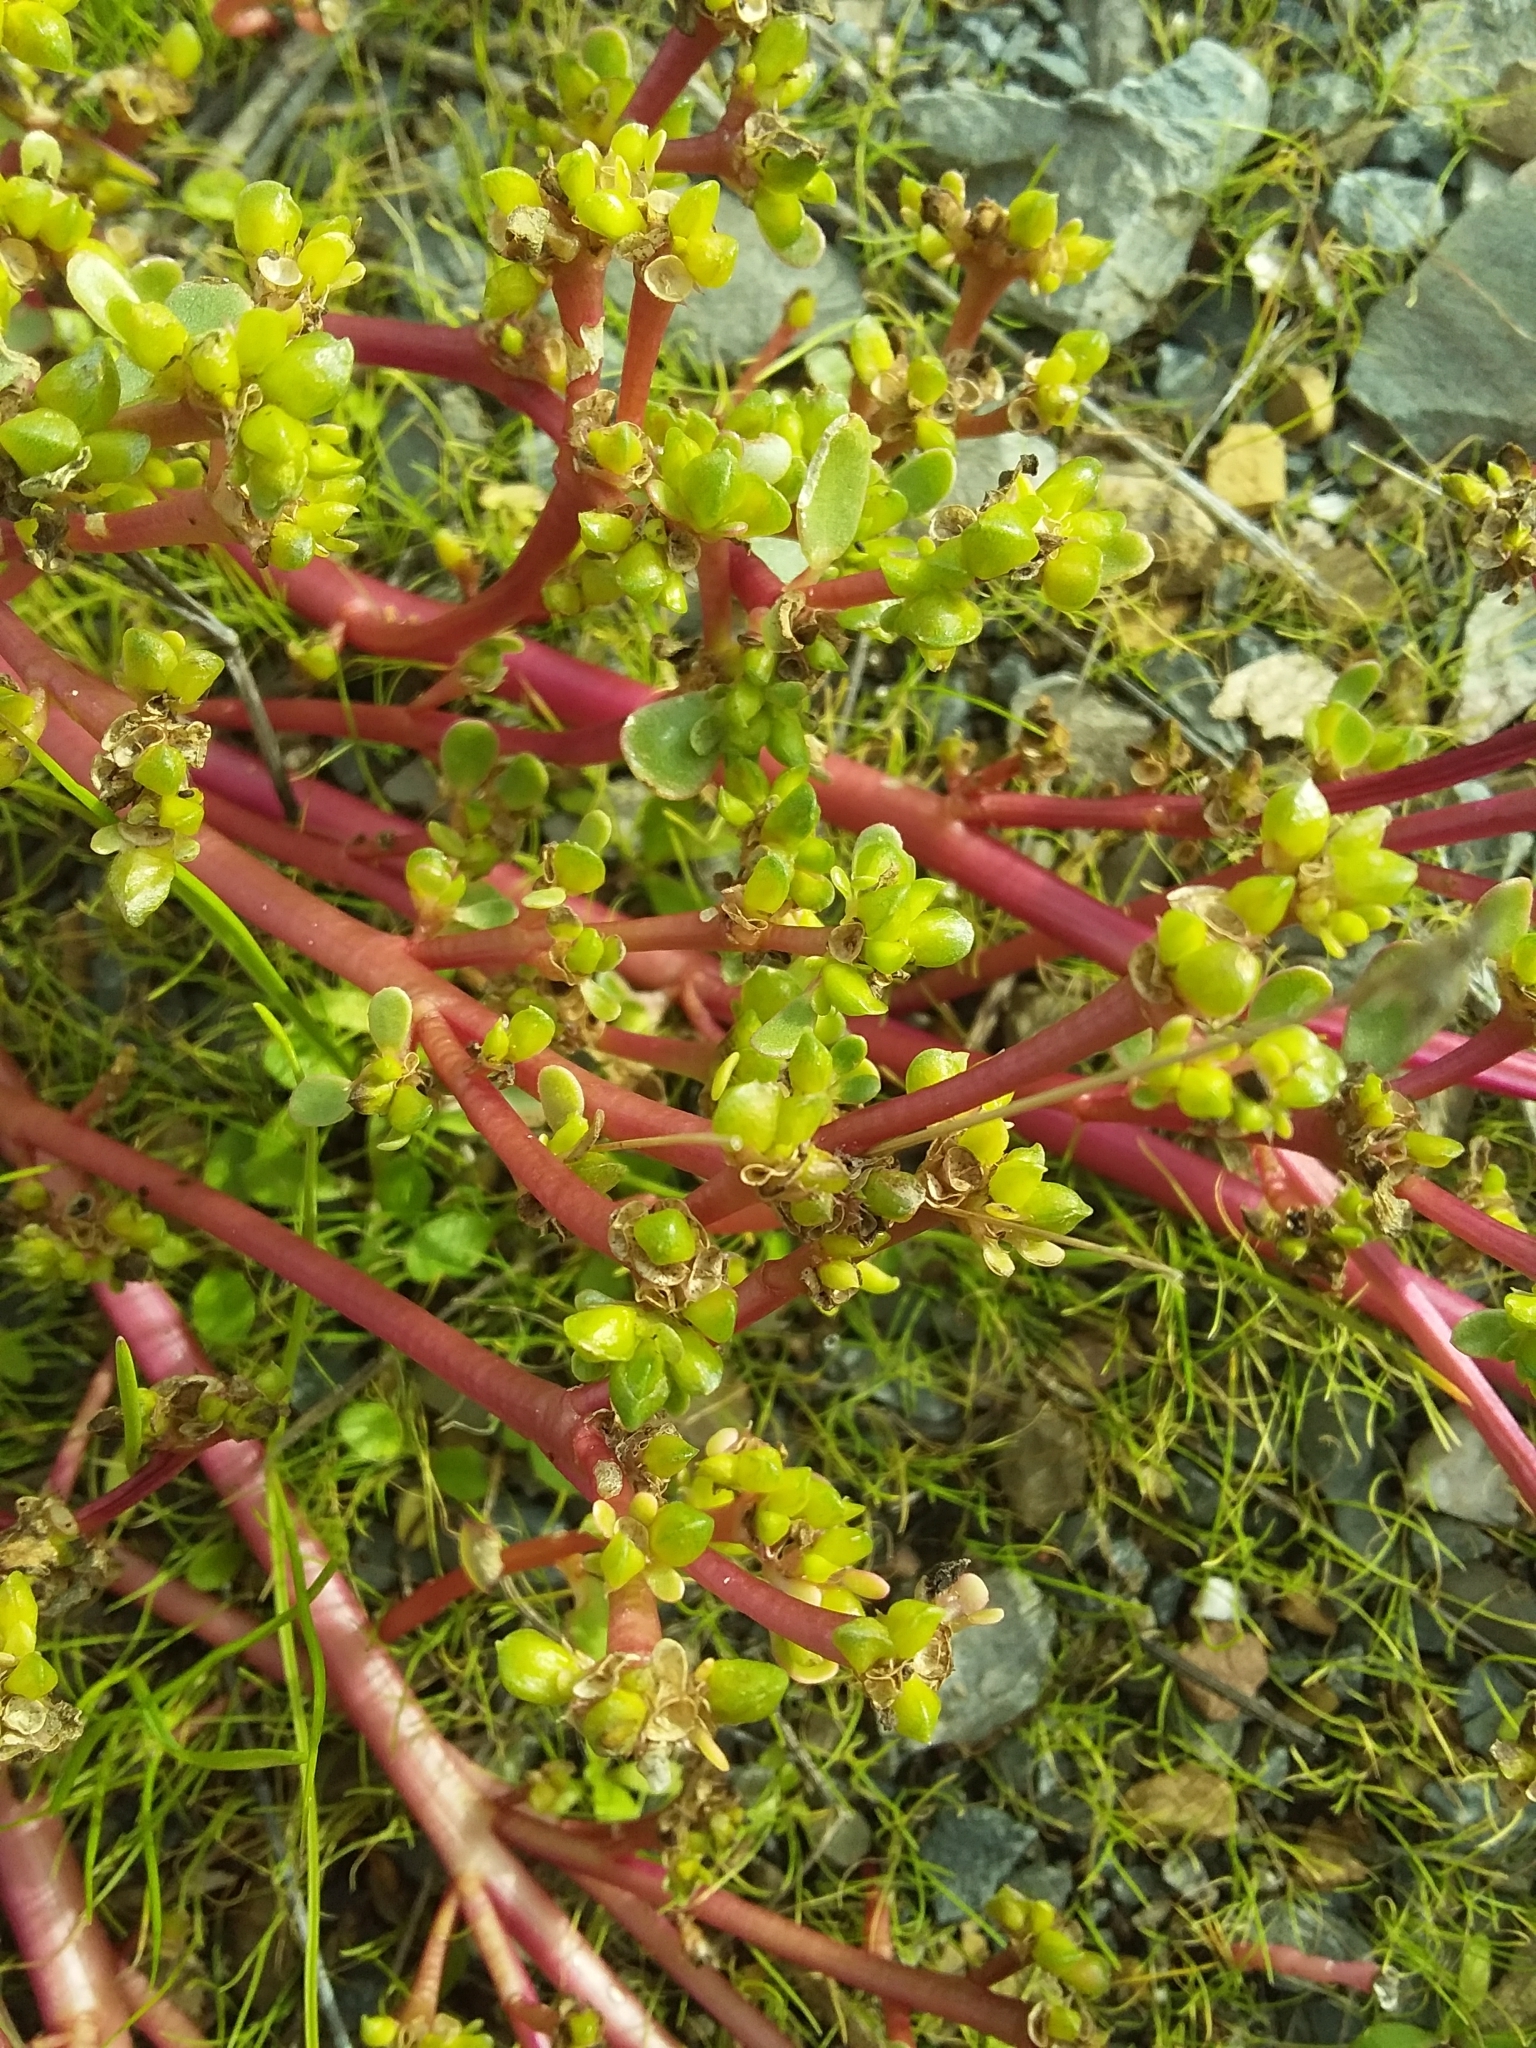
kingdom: Plantae
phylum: Tracheophyta
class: Magnoliopsida
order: Caryophyllales
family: Portulacaceae
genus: Portulaca
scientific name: Portulaca oleracea
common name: Common purslane
